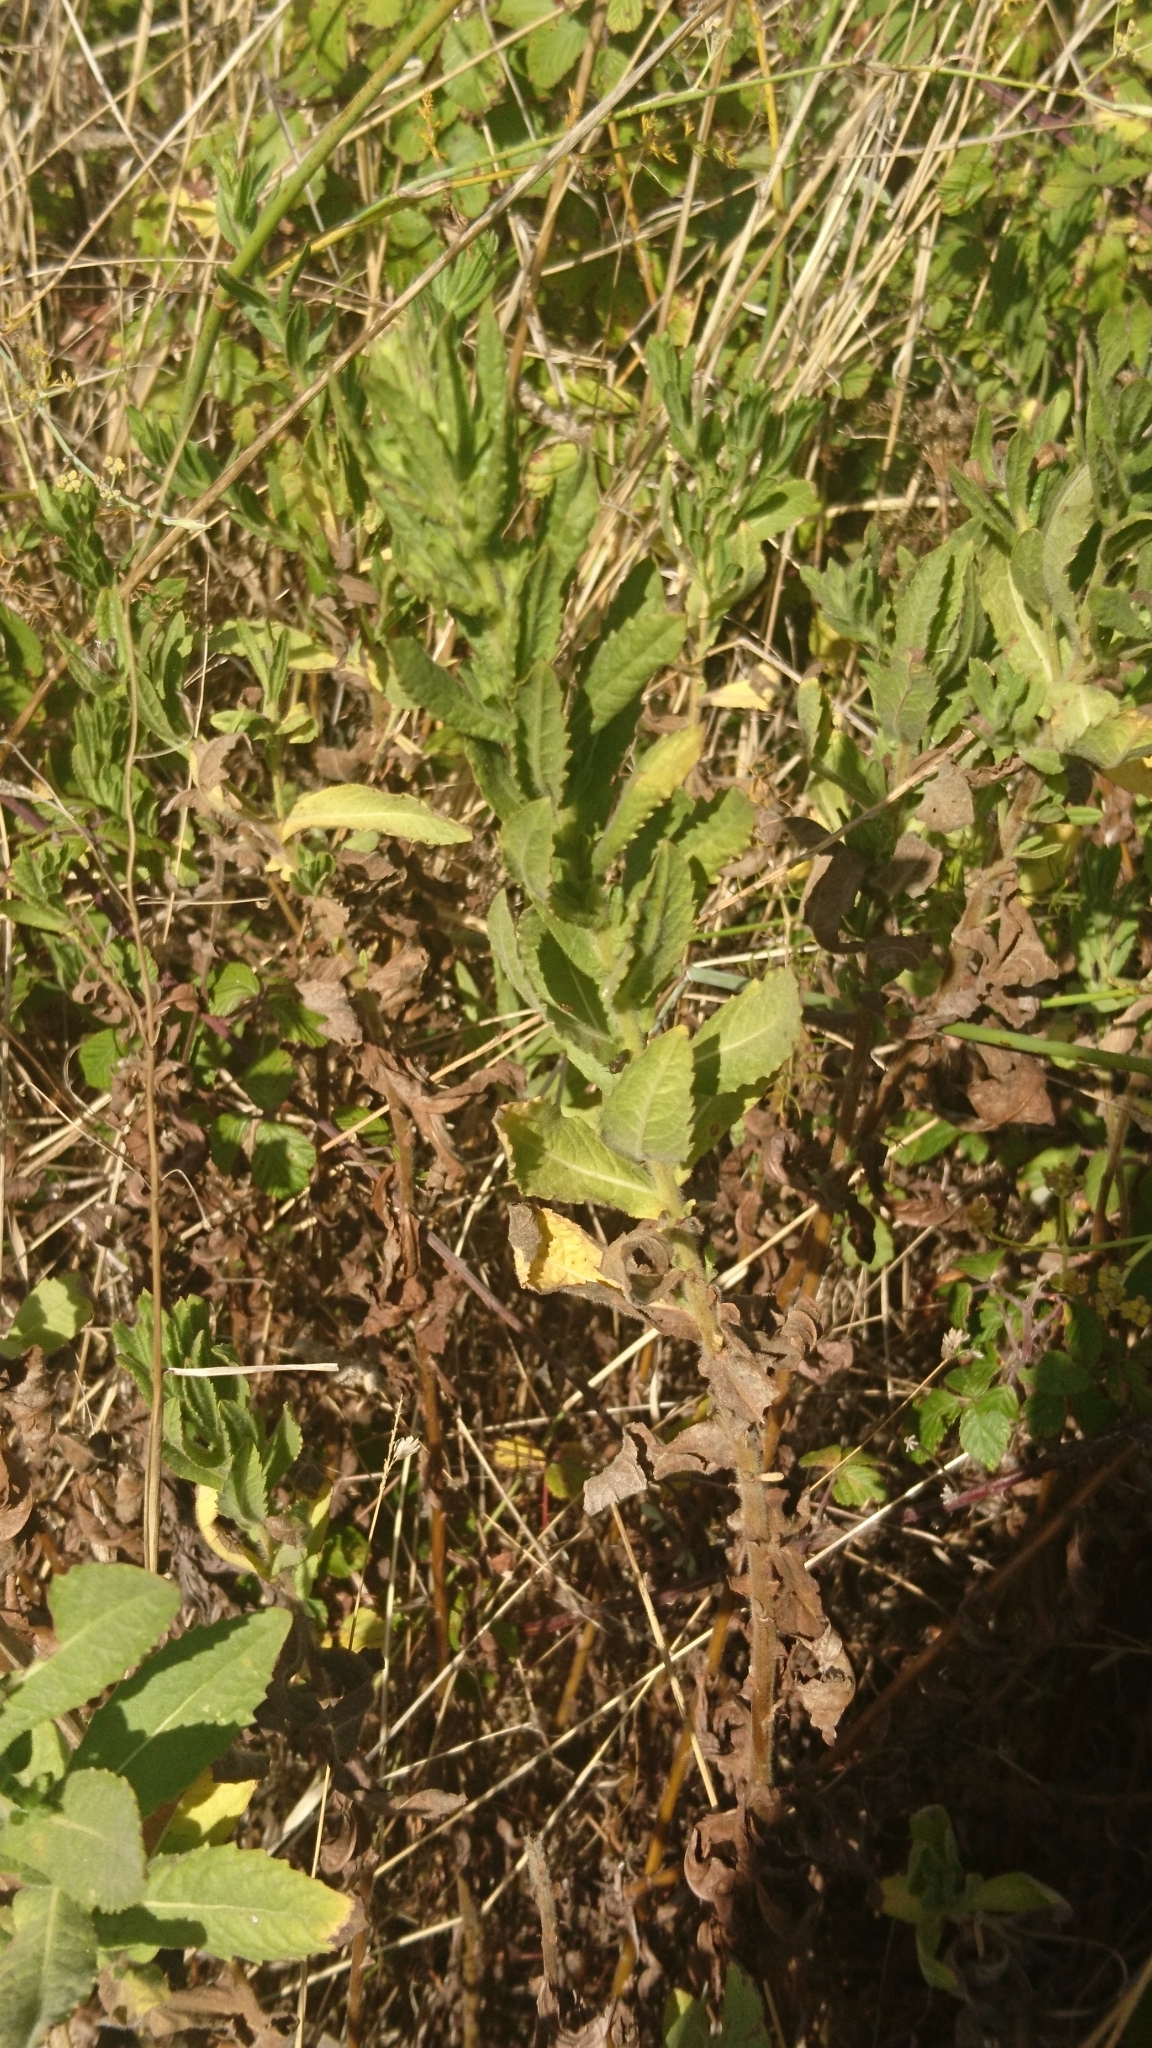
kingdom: Plantae
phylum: Tracheophyta
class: Magnoliopsida
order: Asterales
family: Asteraceae
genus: Dittrichia
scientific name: Dittrichia viscosa
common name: Woody fleabane
